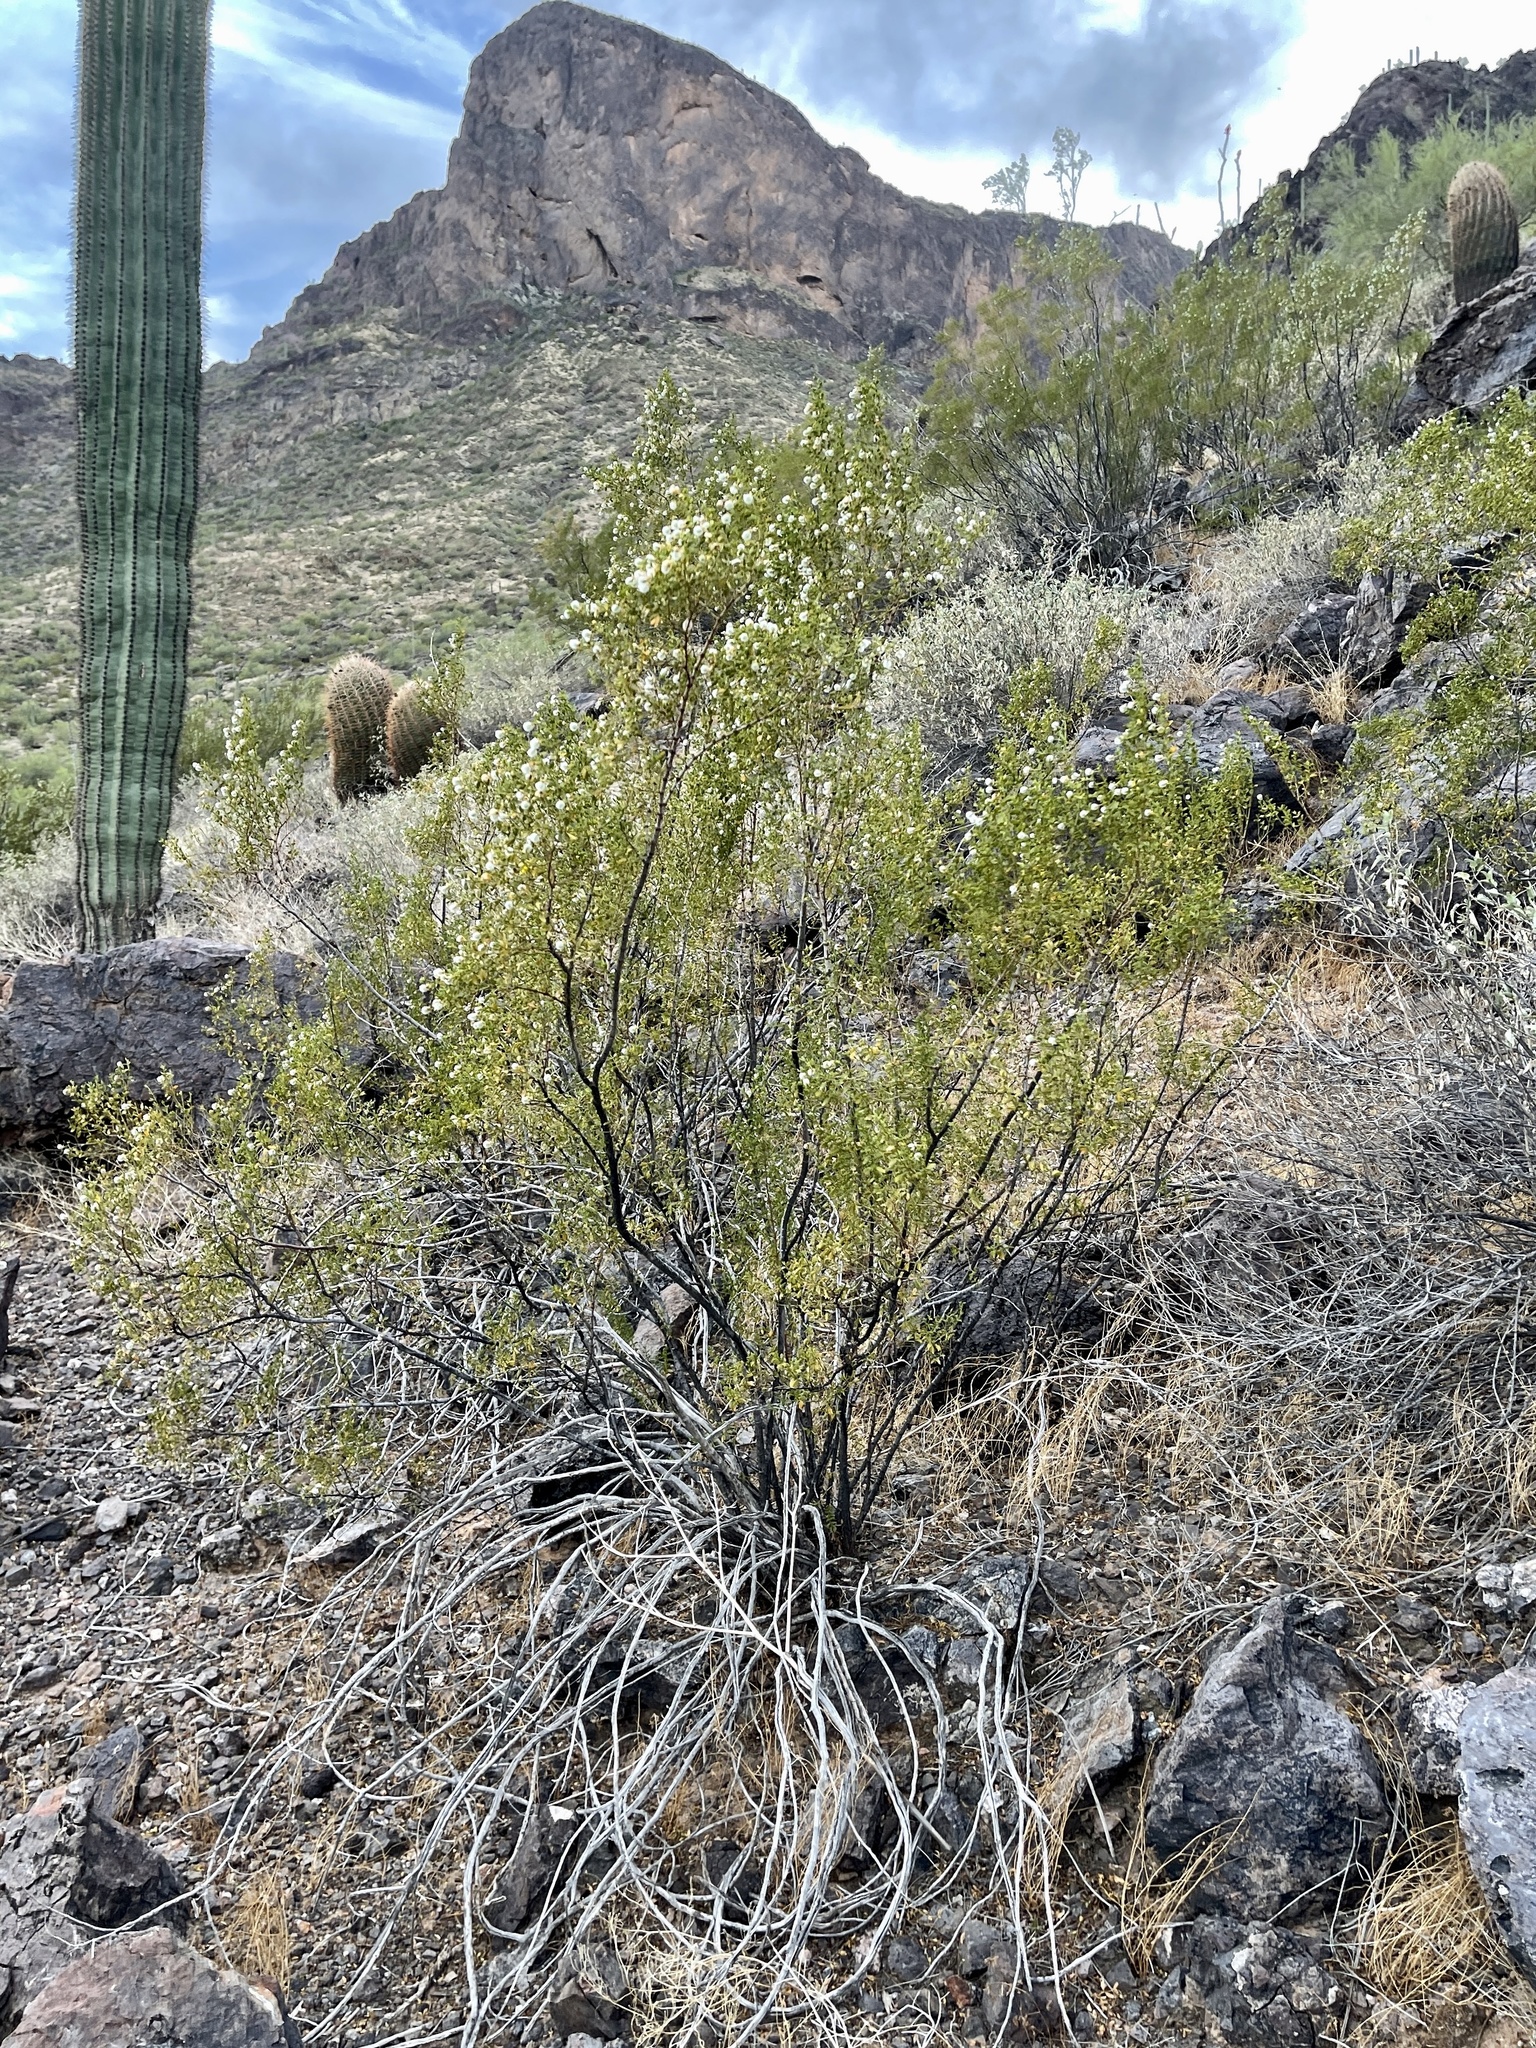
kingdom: Plantae
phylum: Tracheophyta
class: Magnoliopsida
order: Zygophyllales
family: Zygophyllaceae
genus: Larrea
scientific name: Larrea tridentata
